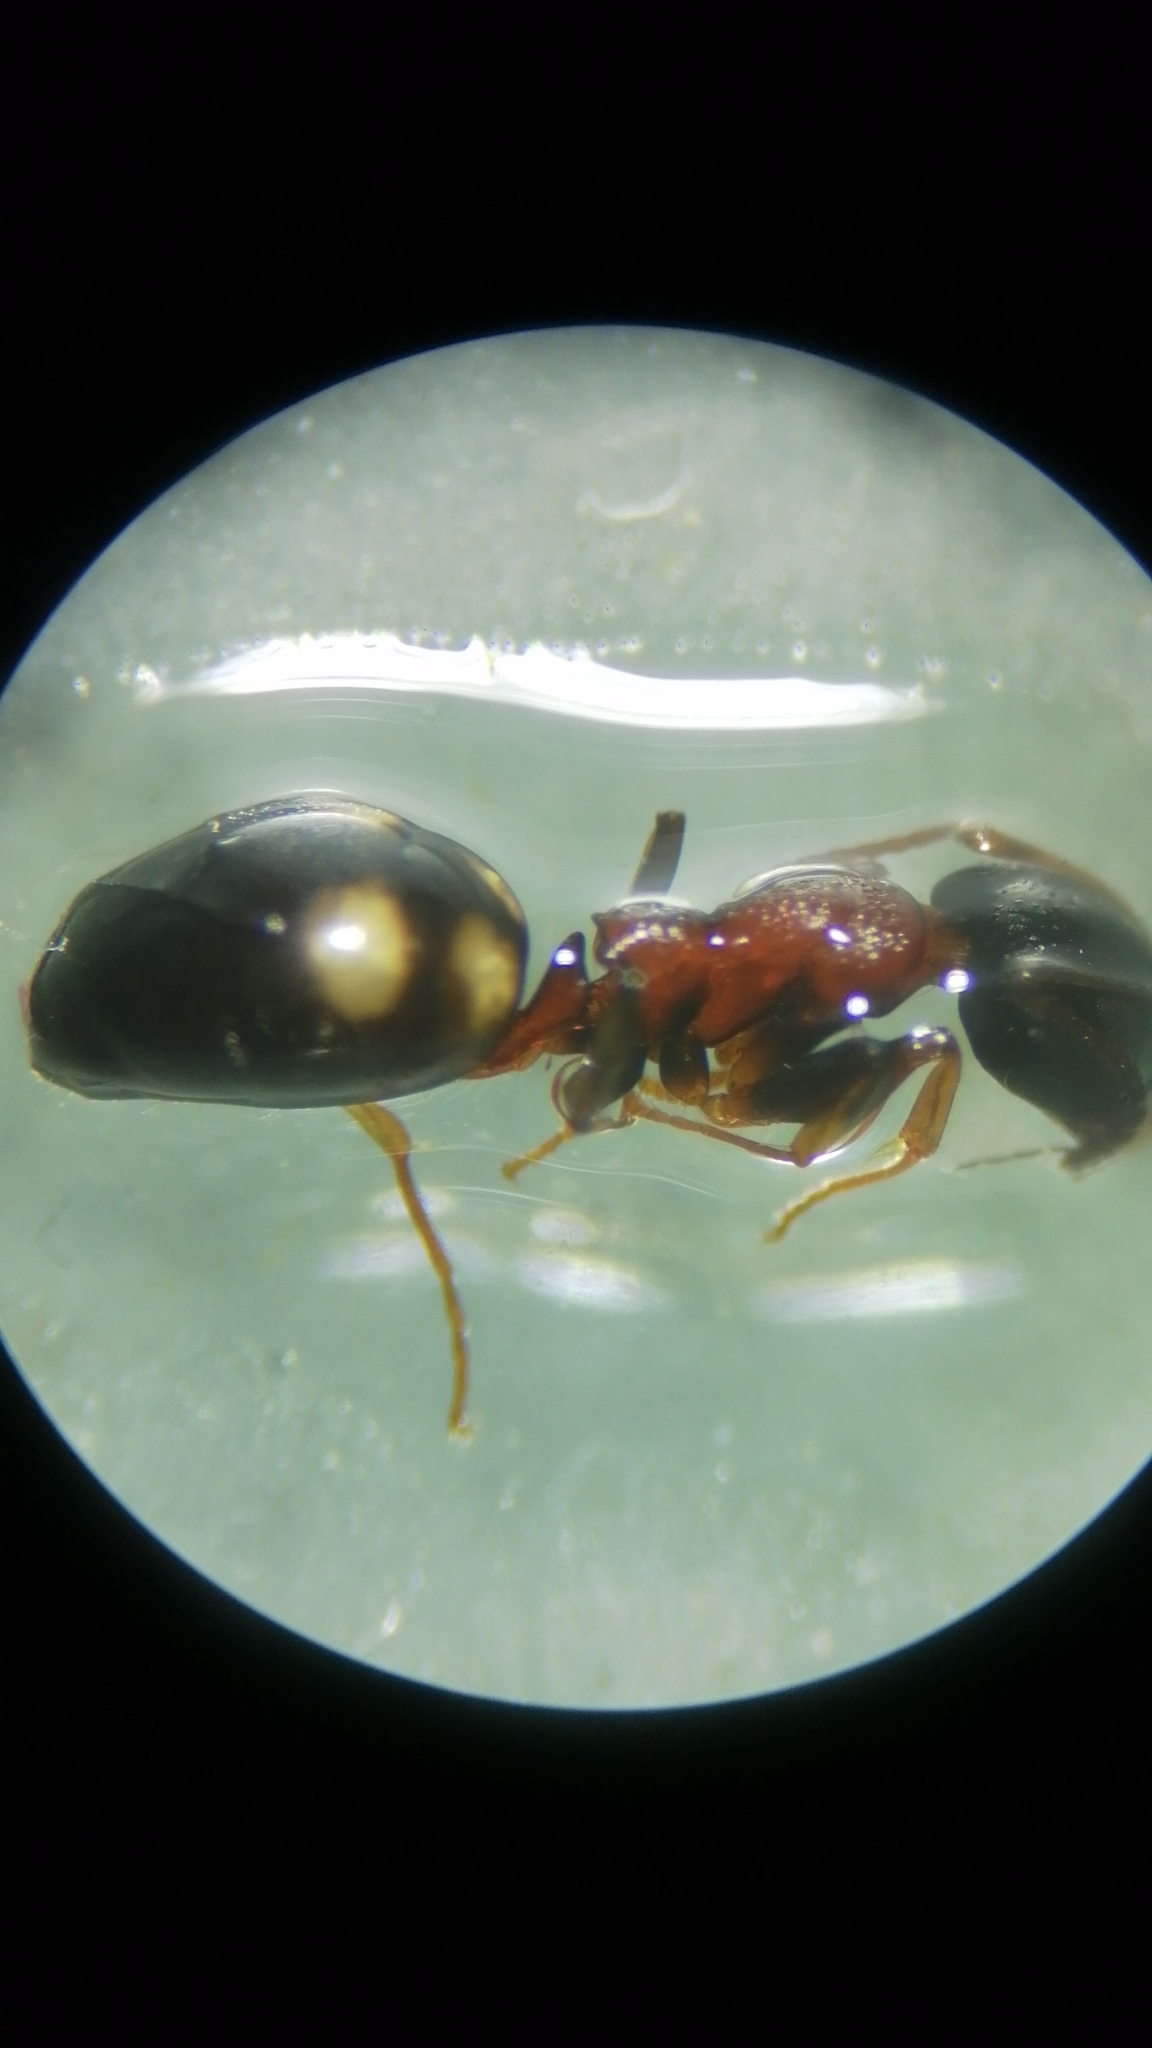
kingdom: Animalia
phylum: Arthropoda
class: Insecta
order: Hymenoptera
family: Formicidae
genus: Dolichoderus
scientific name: Dolichoderus quadripunctatus
